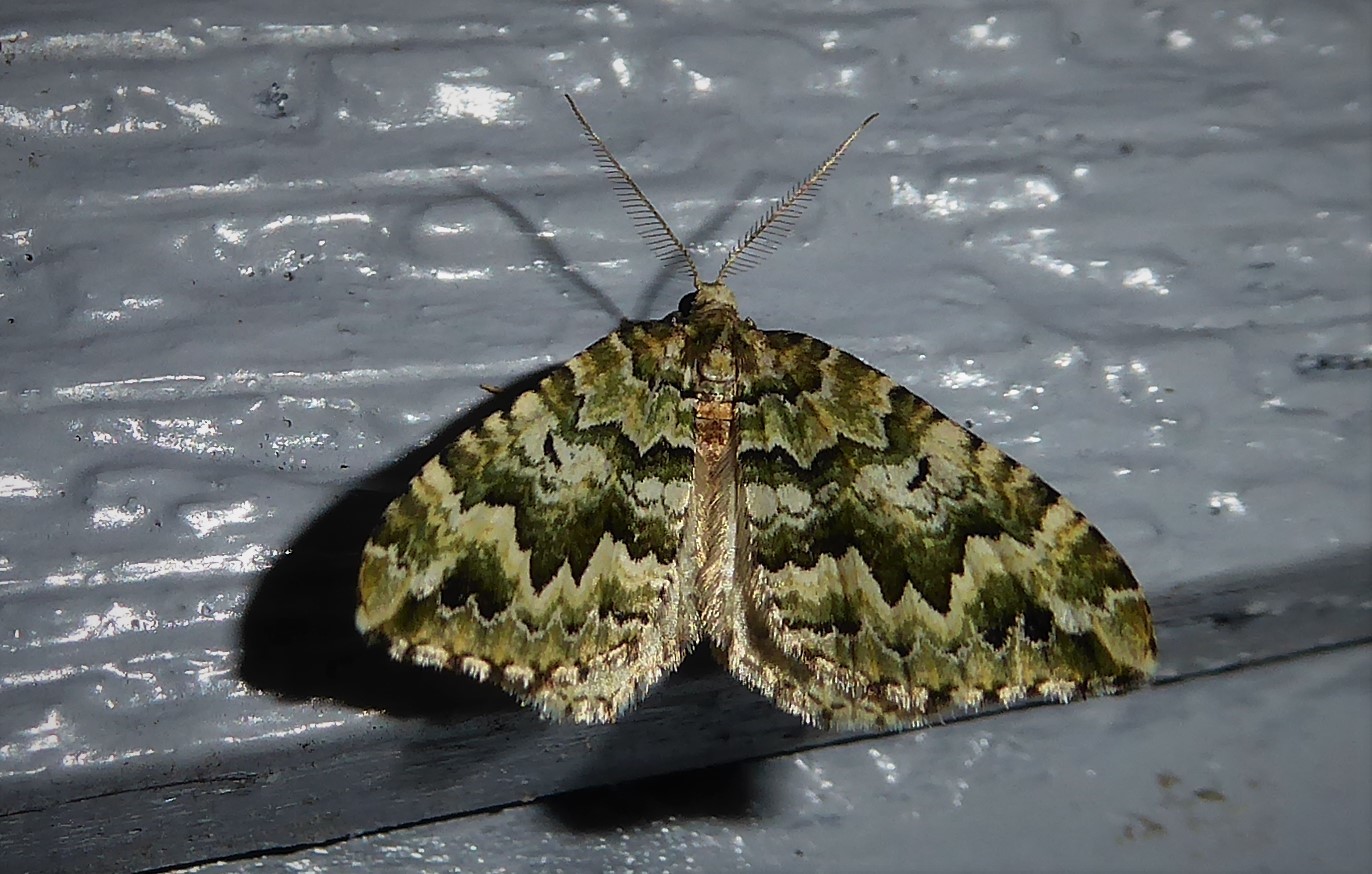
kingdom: Animalia
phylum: Arthropoda
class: Insecta
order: Lepidoptera
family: Geometridae
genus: Asaphodes
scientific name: Asaphodes beata
